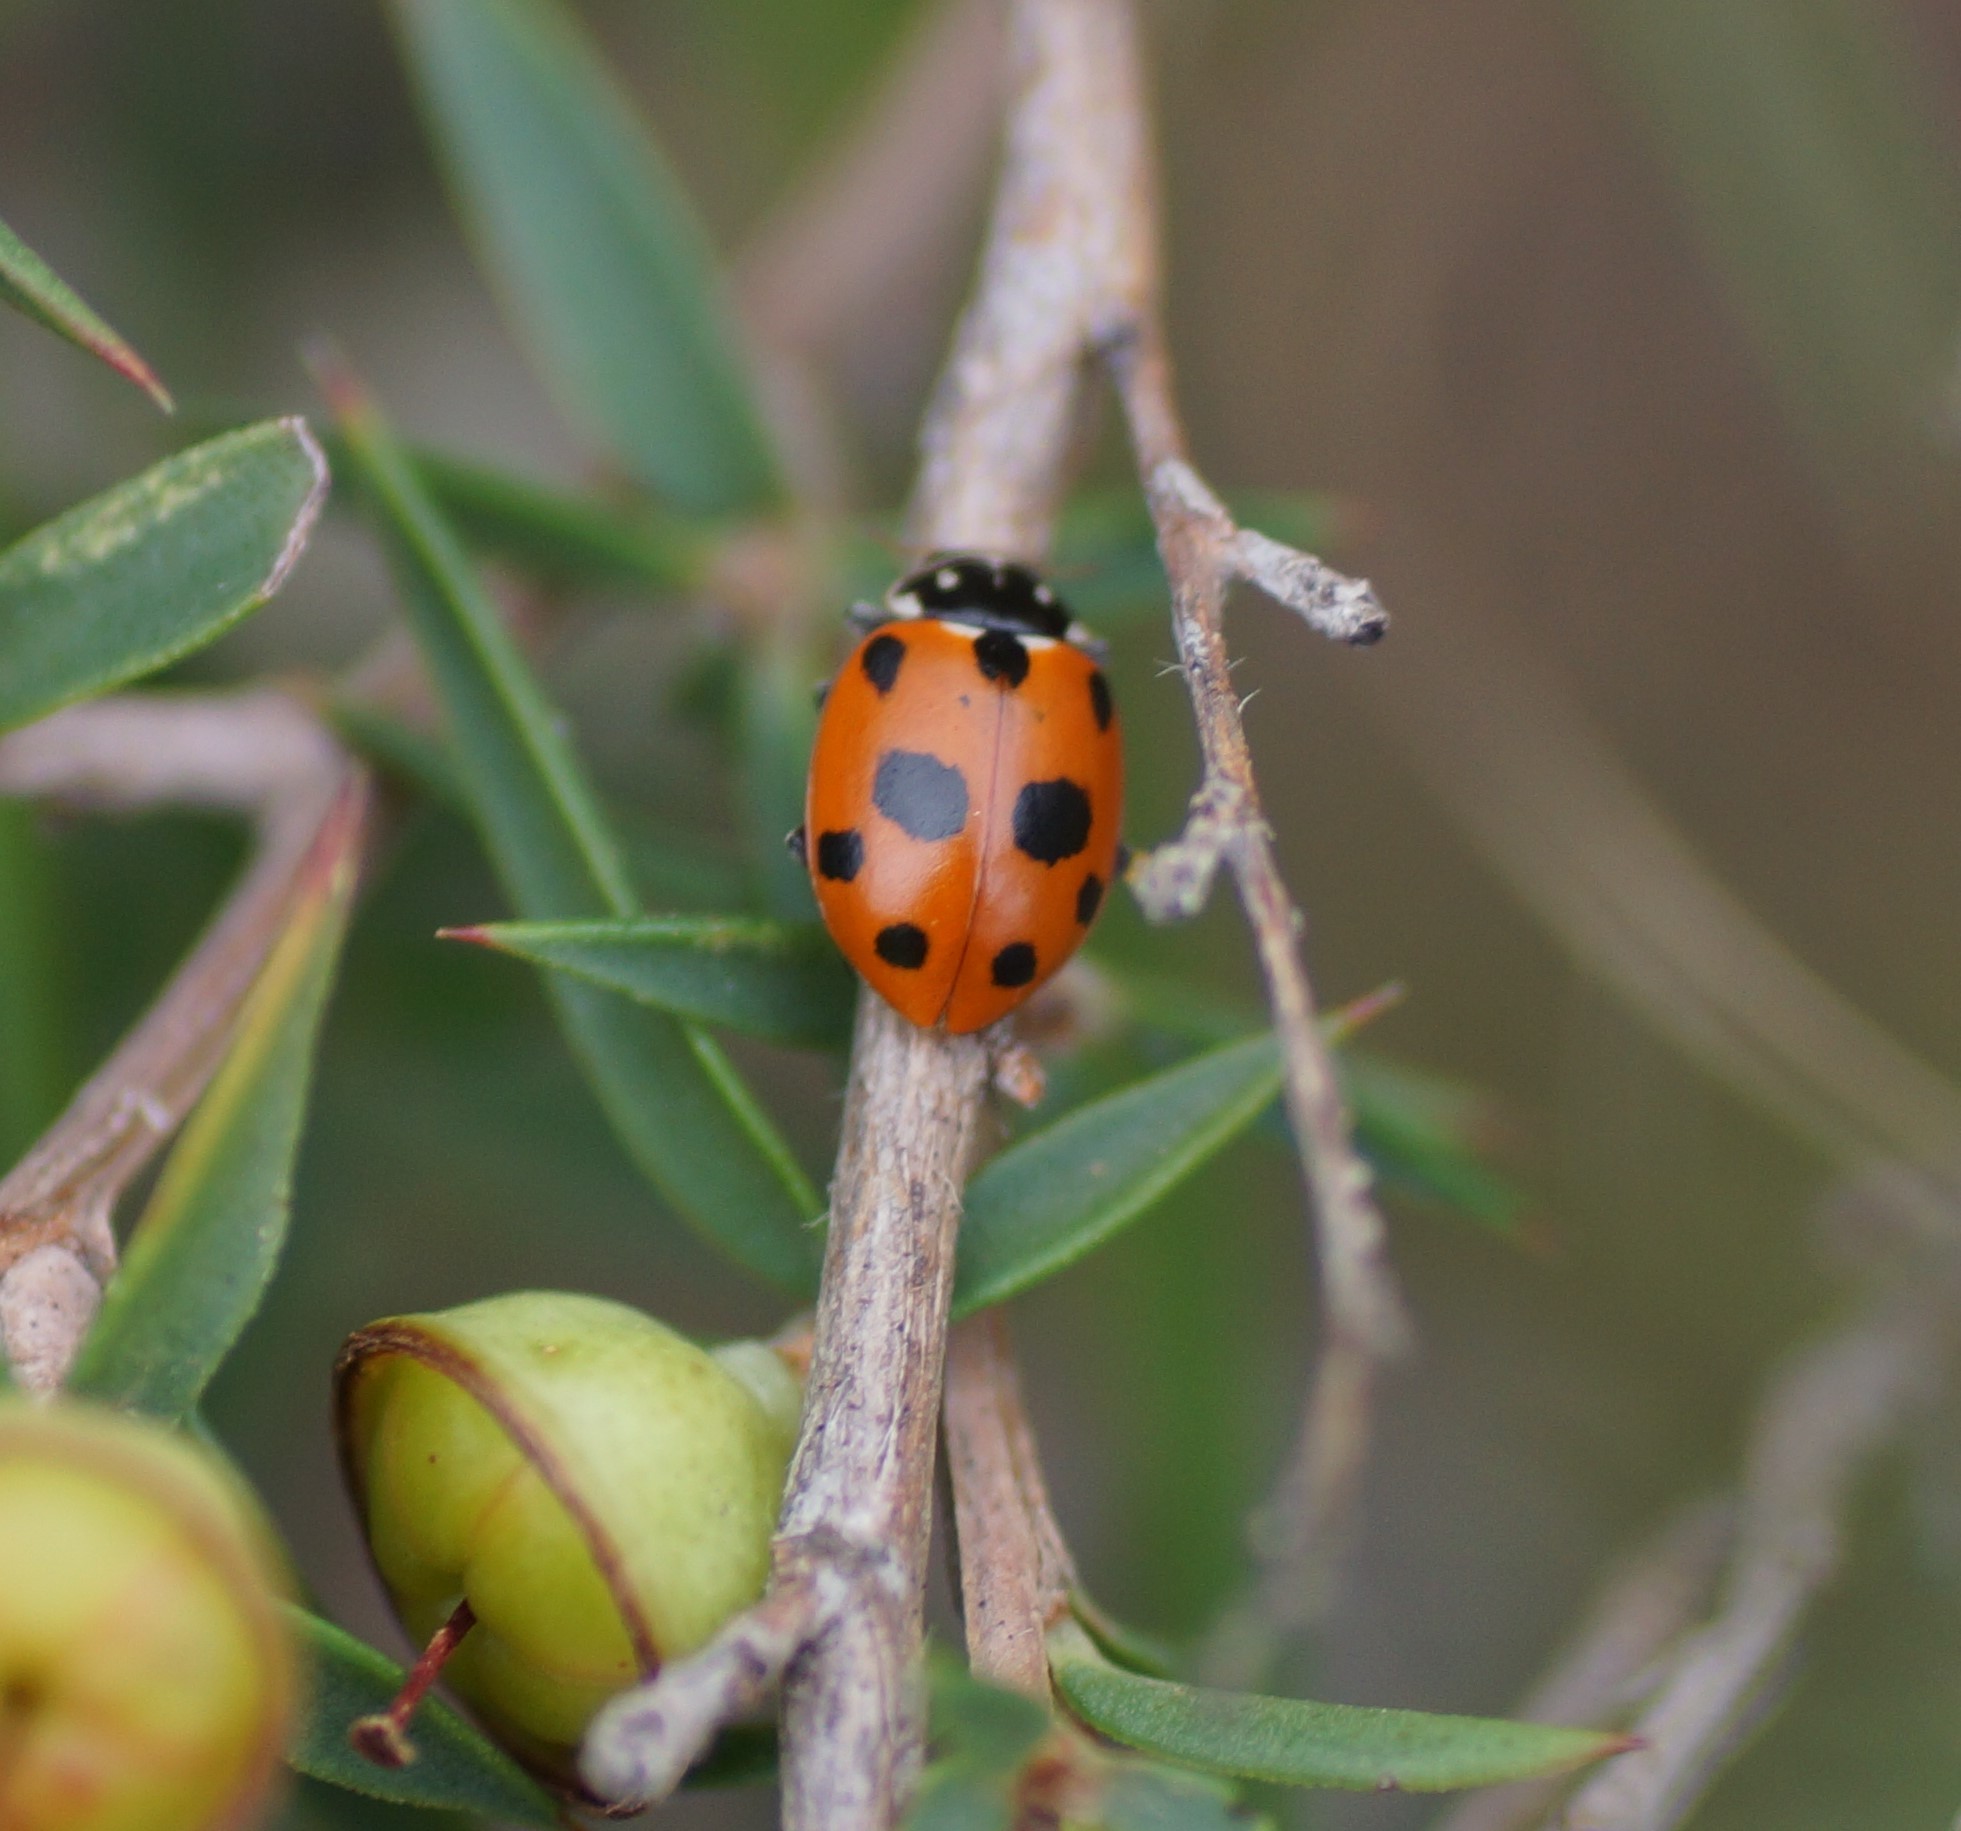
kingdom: Animalia
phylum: Arthropoda
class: Insecta
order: Coleoptera
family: Coccinellidae
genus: Hippodamia
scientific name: Hippodamia variegata
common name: Ladybird beetle
